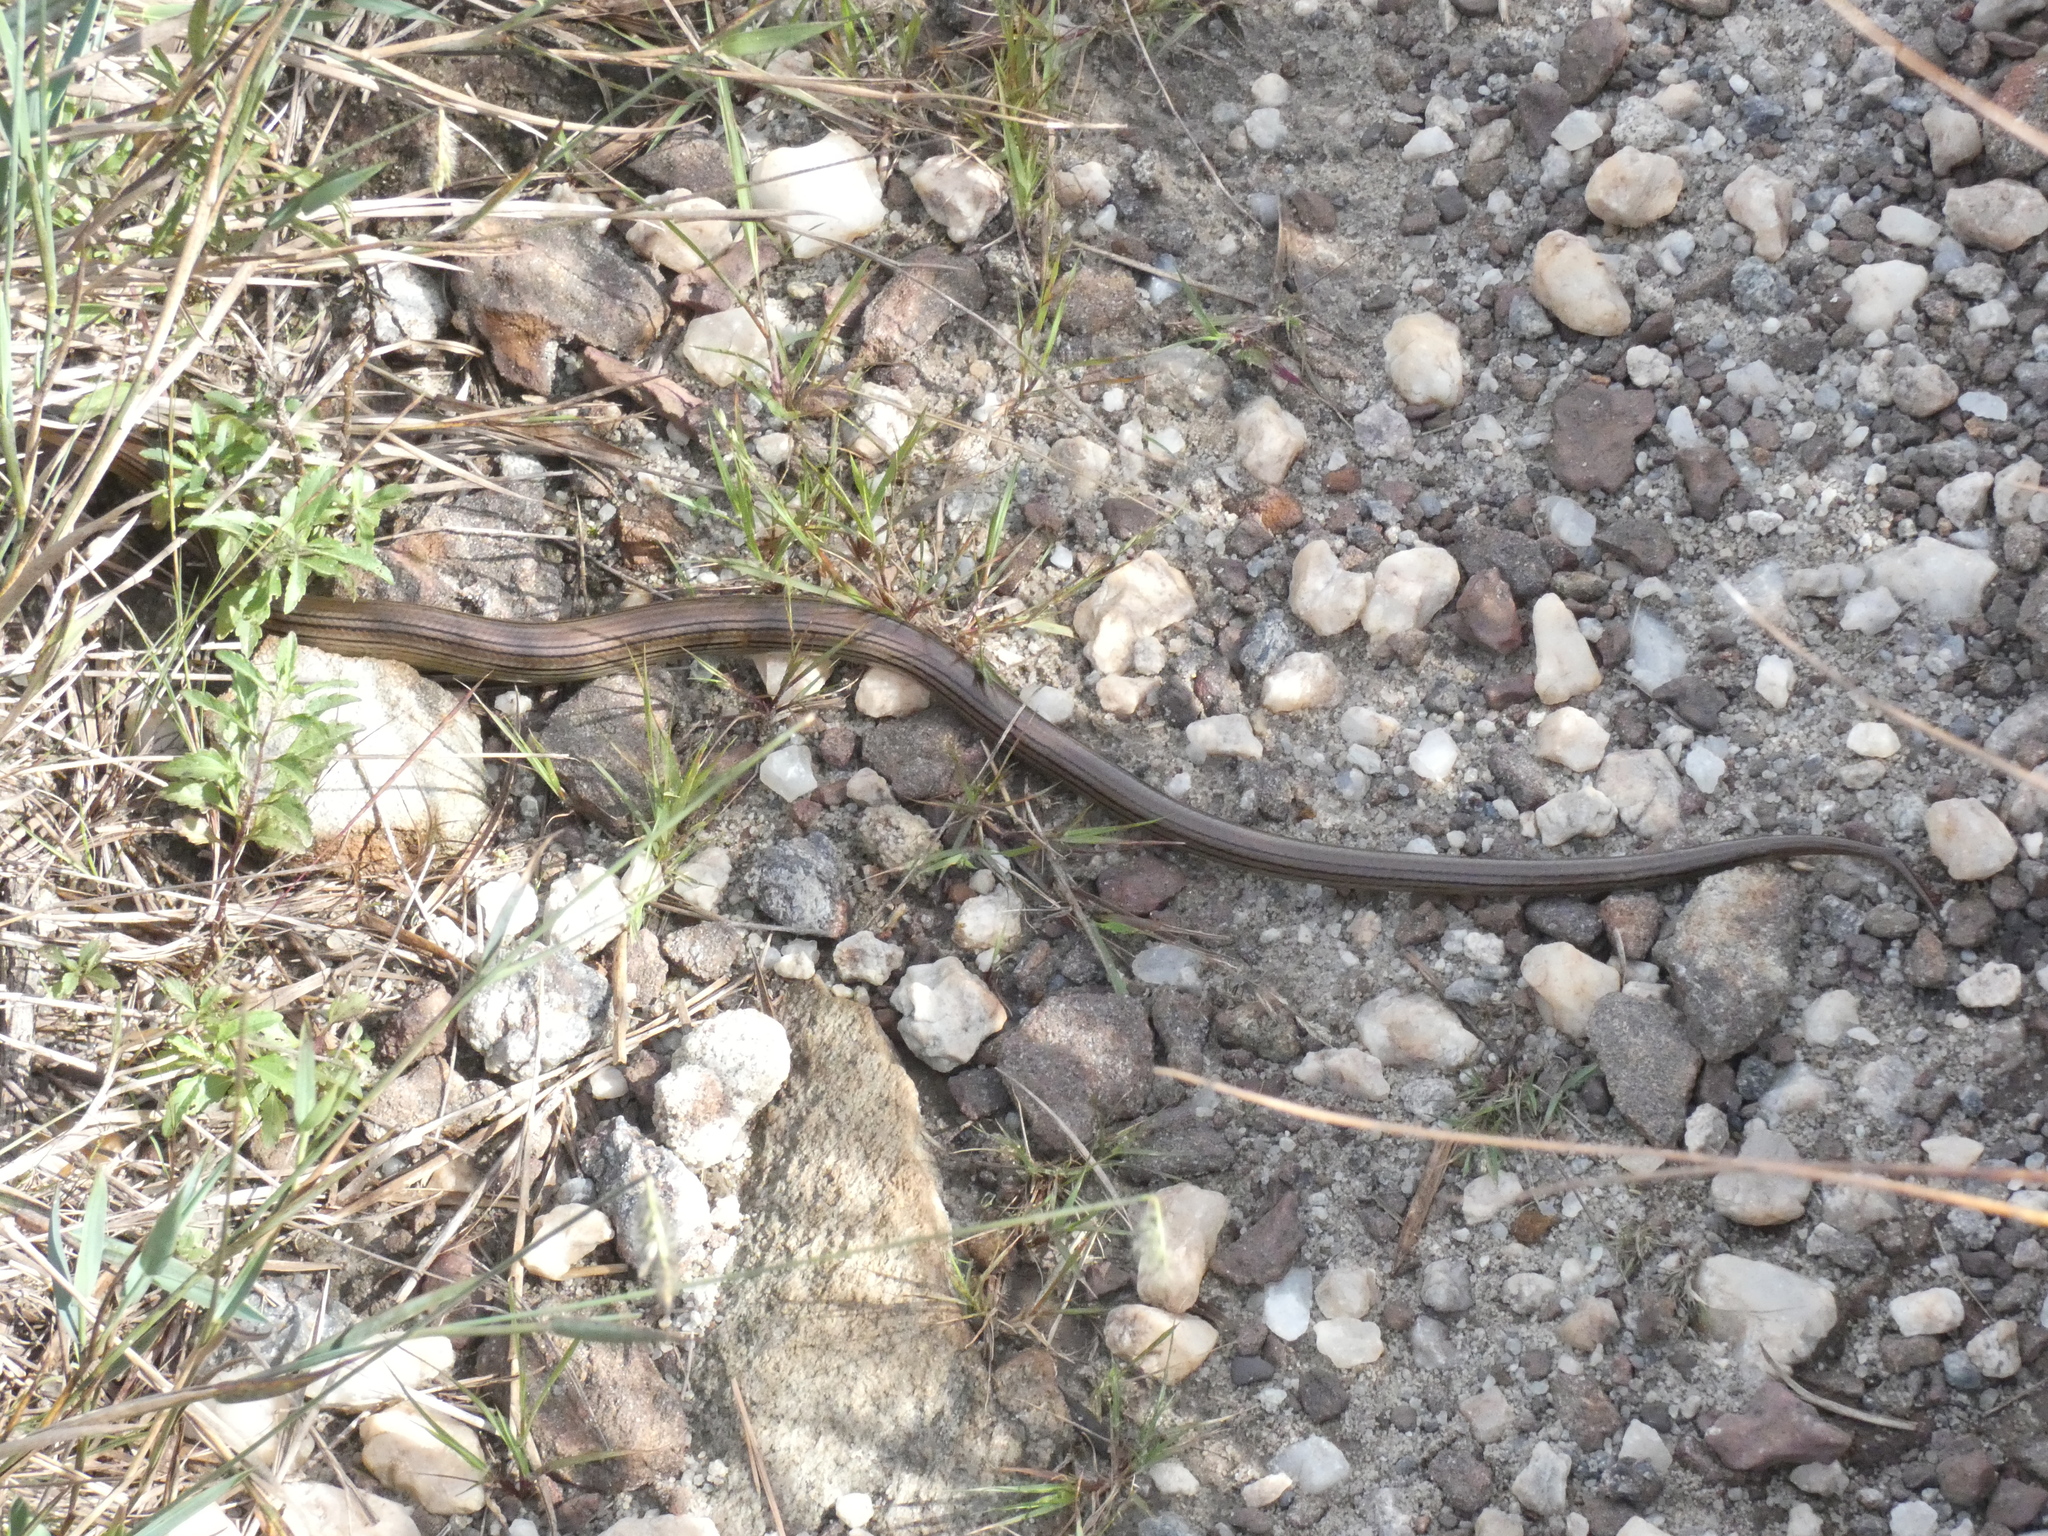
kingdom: Animalia
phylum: Chordata
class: Squamata
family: Diploglossidae
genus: Ophiodes
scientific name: Ophiodes striatus
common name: Striped worm lizard
